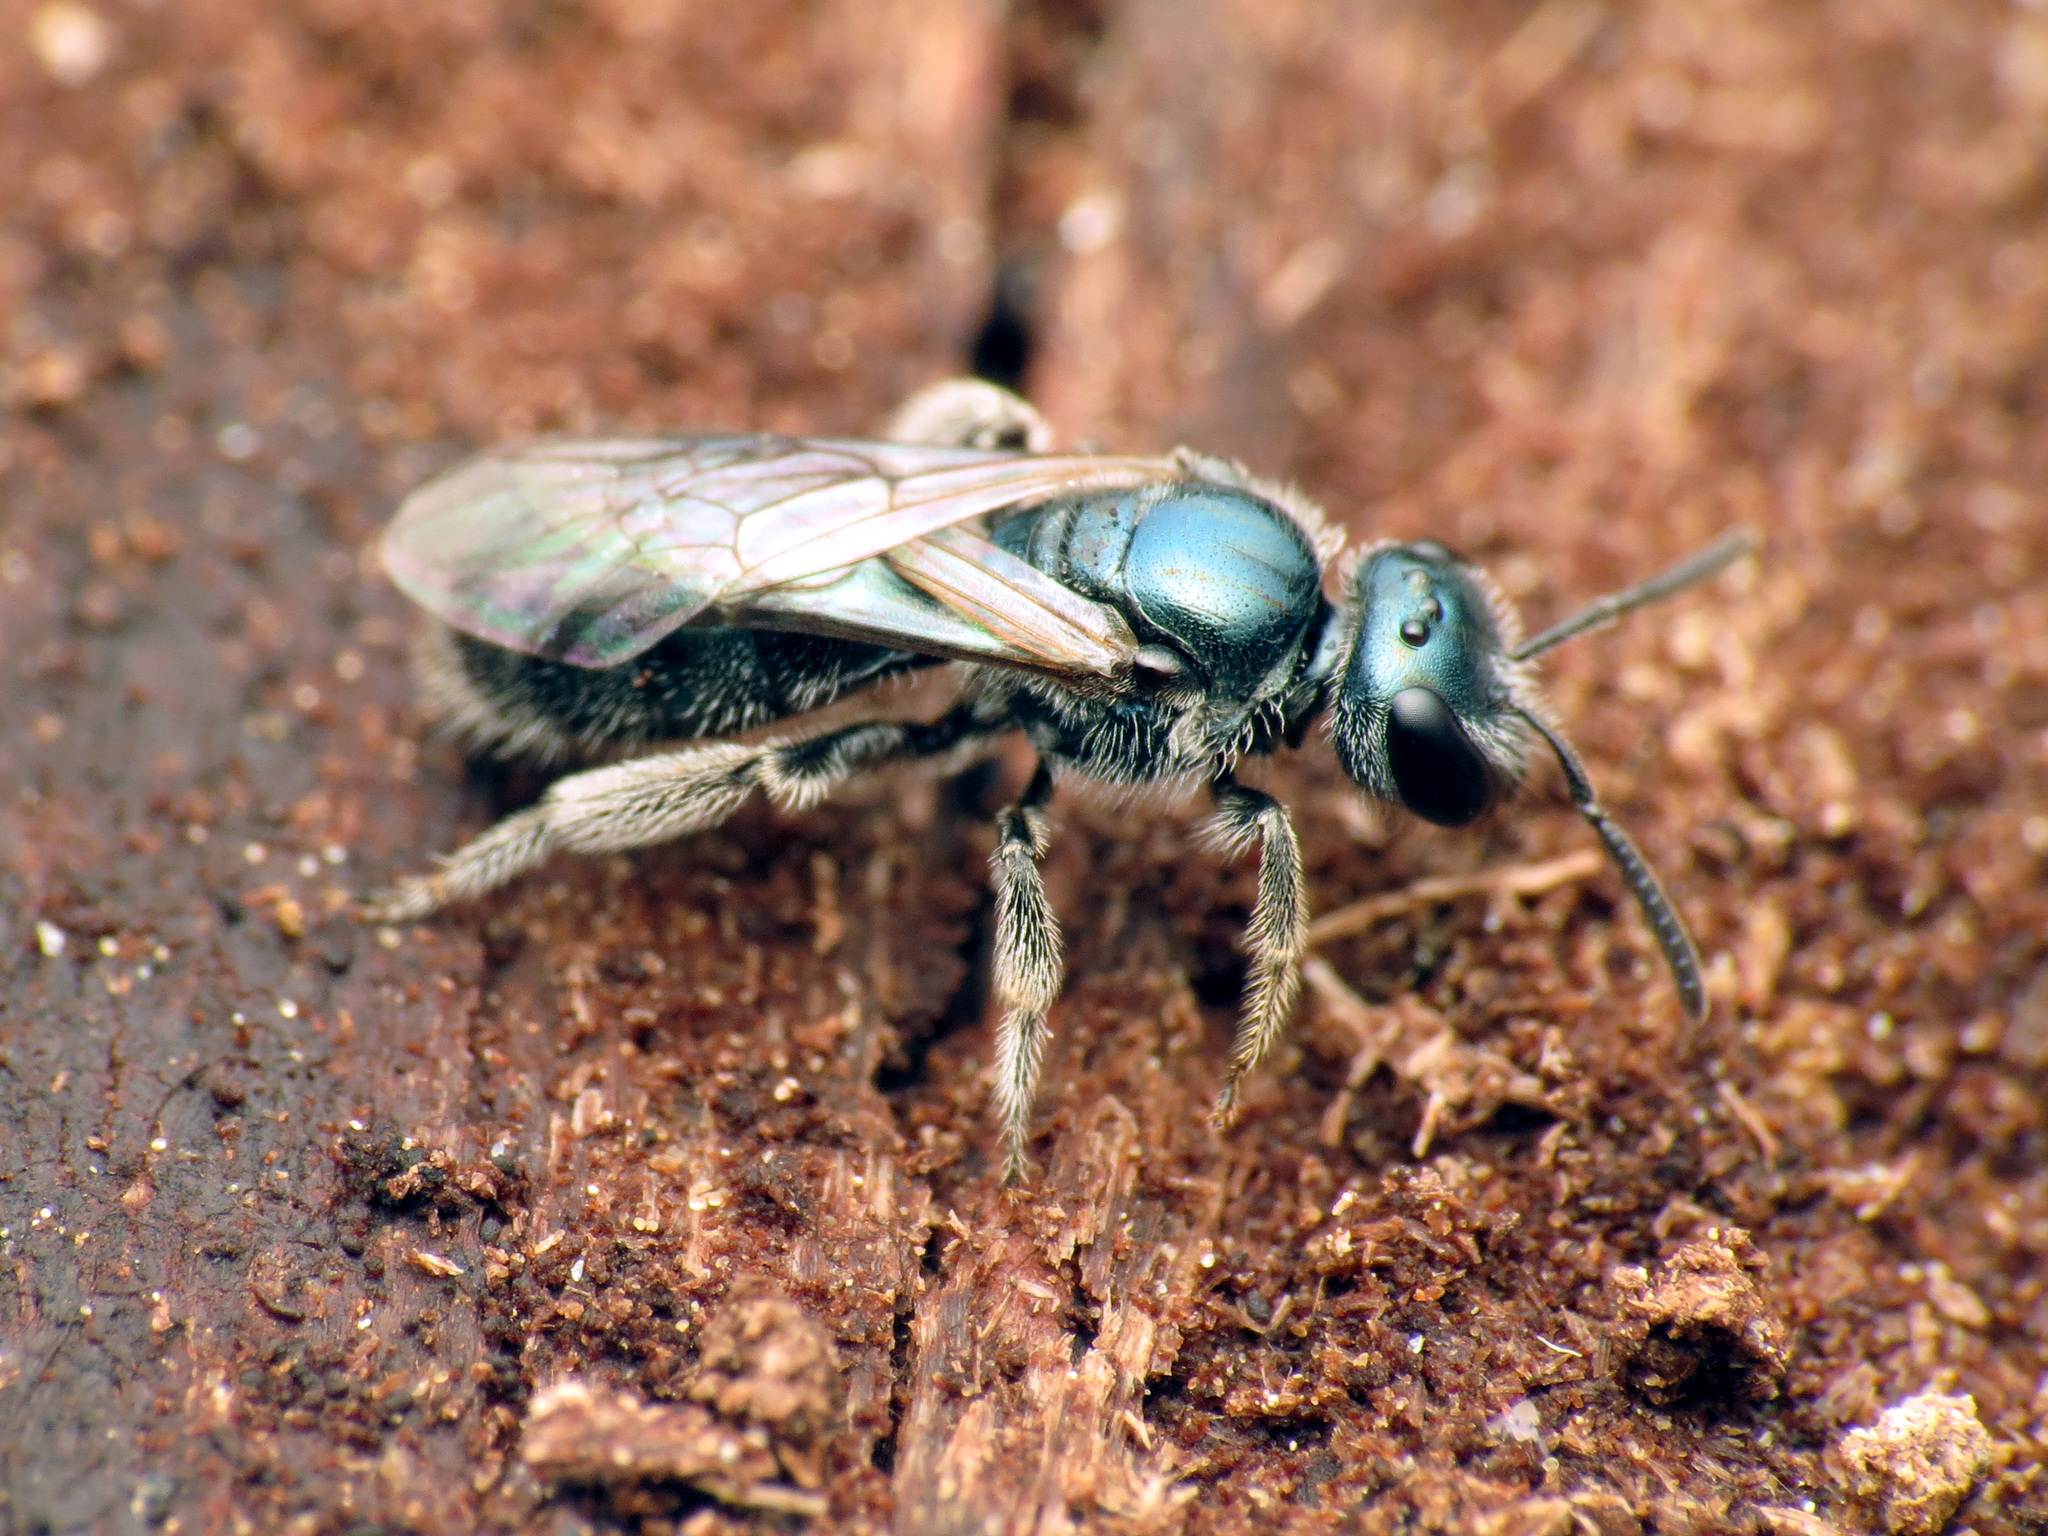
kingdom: Animalia
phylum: Arthropoda
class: Insecta
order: Hymenoptera
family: Halictidae
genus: Lasioglossum
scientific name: Lasioglossum coeruleum
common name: Deep-blue sweat bee
